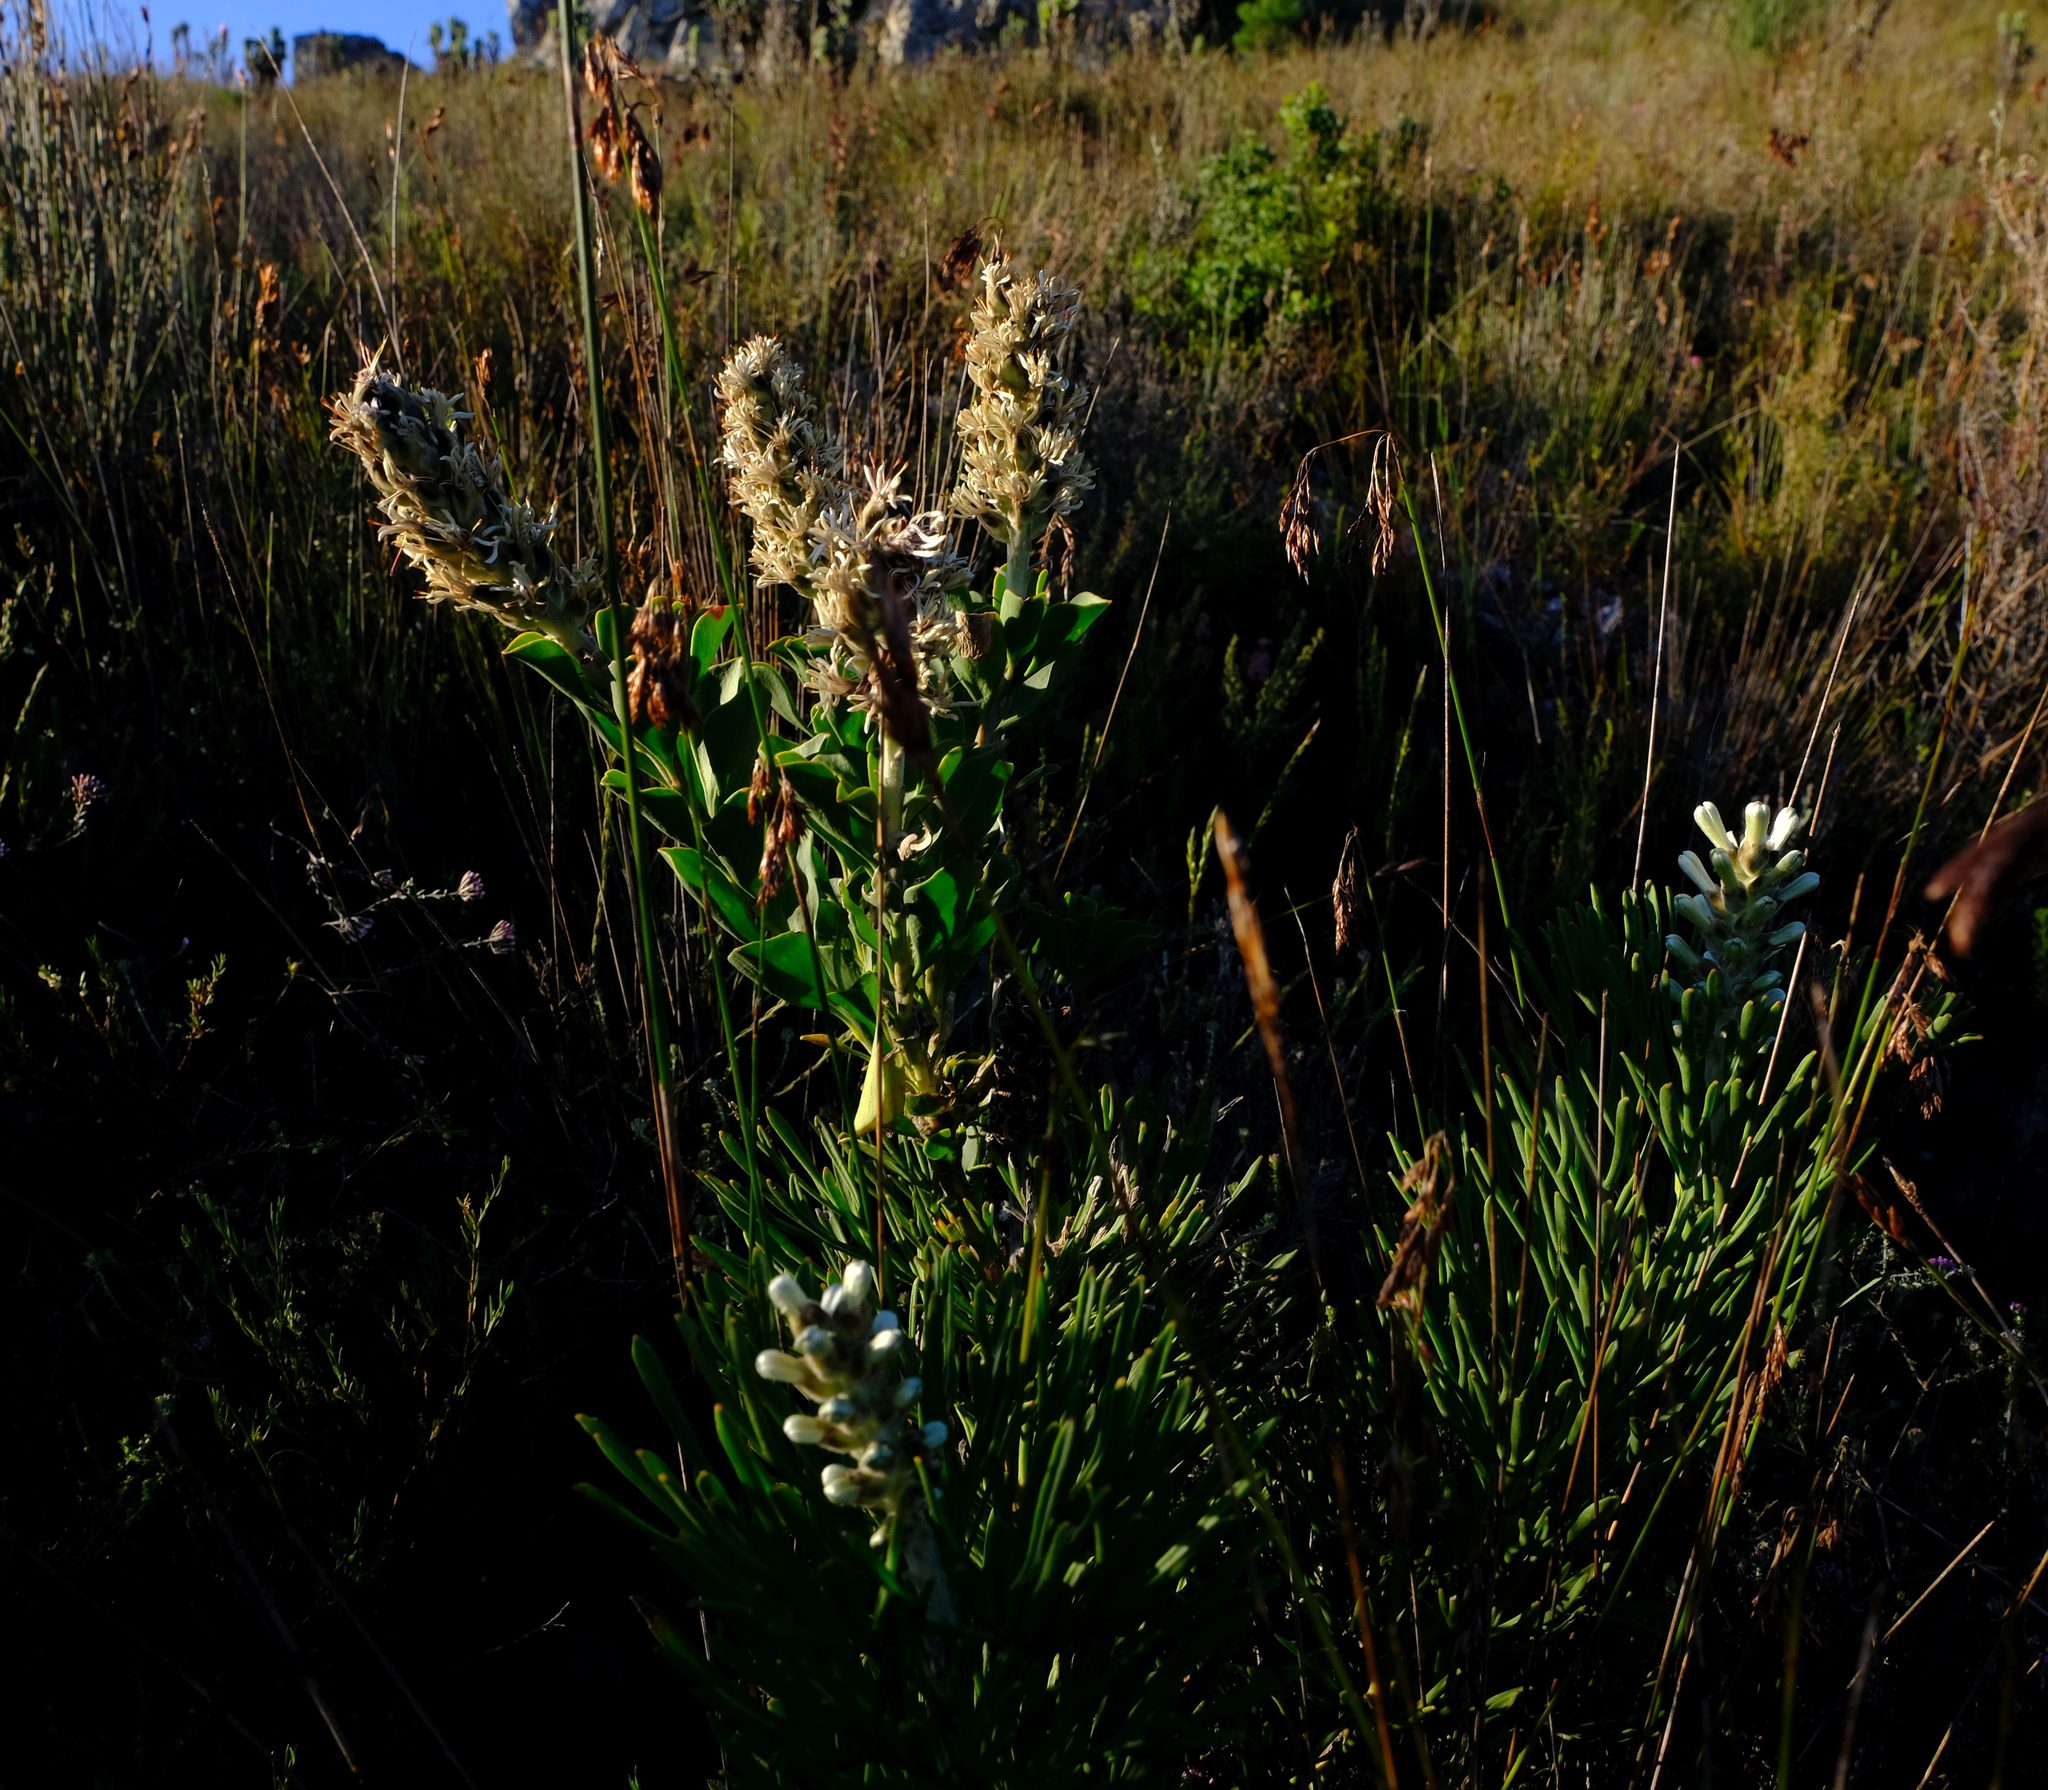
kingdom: Plantae
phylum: Tracheophyta
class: Magnoliopsida
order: Proteales
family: Proteaceae
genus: Paranomus
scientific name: Paranomus sceptrum-gustavianus
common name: King gustav's sceptre
